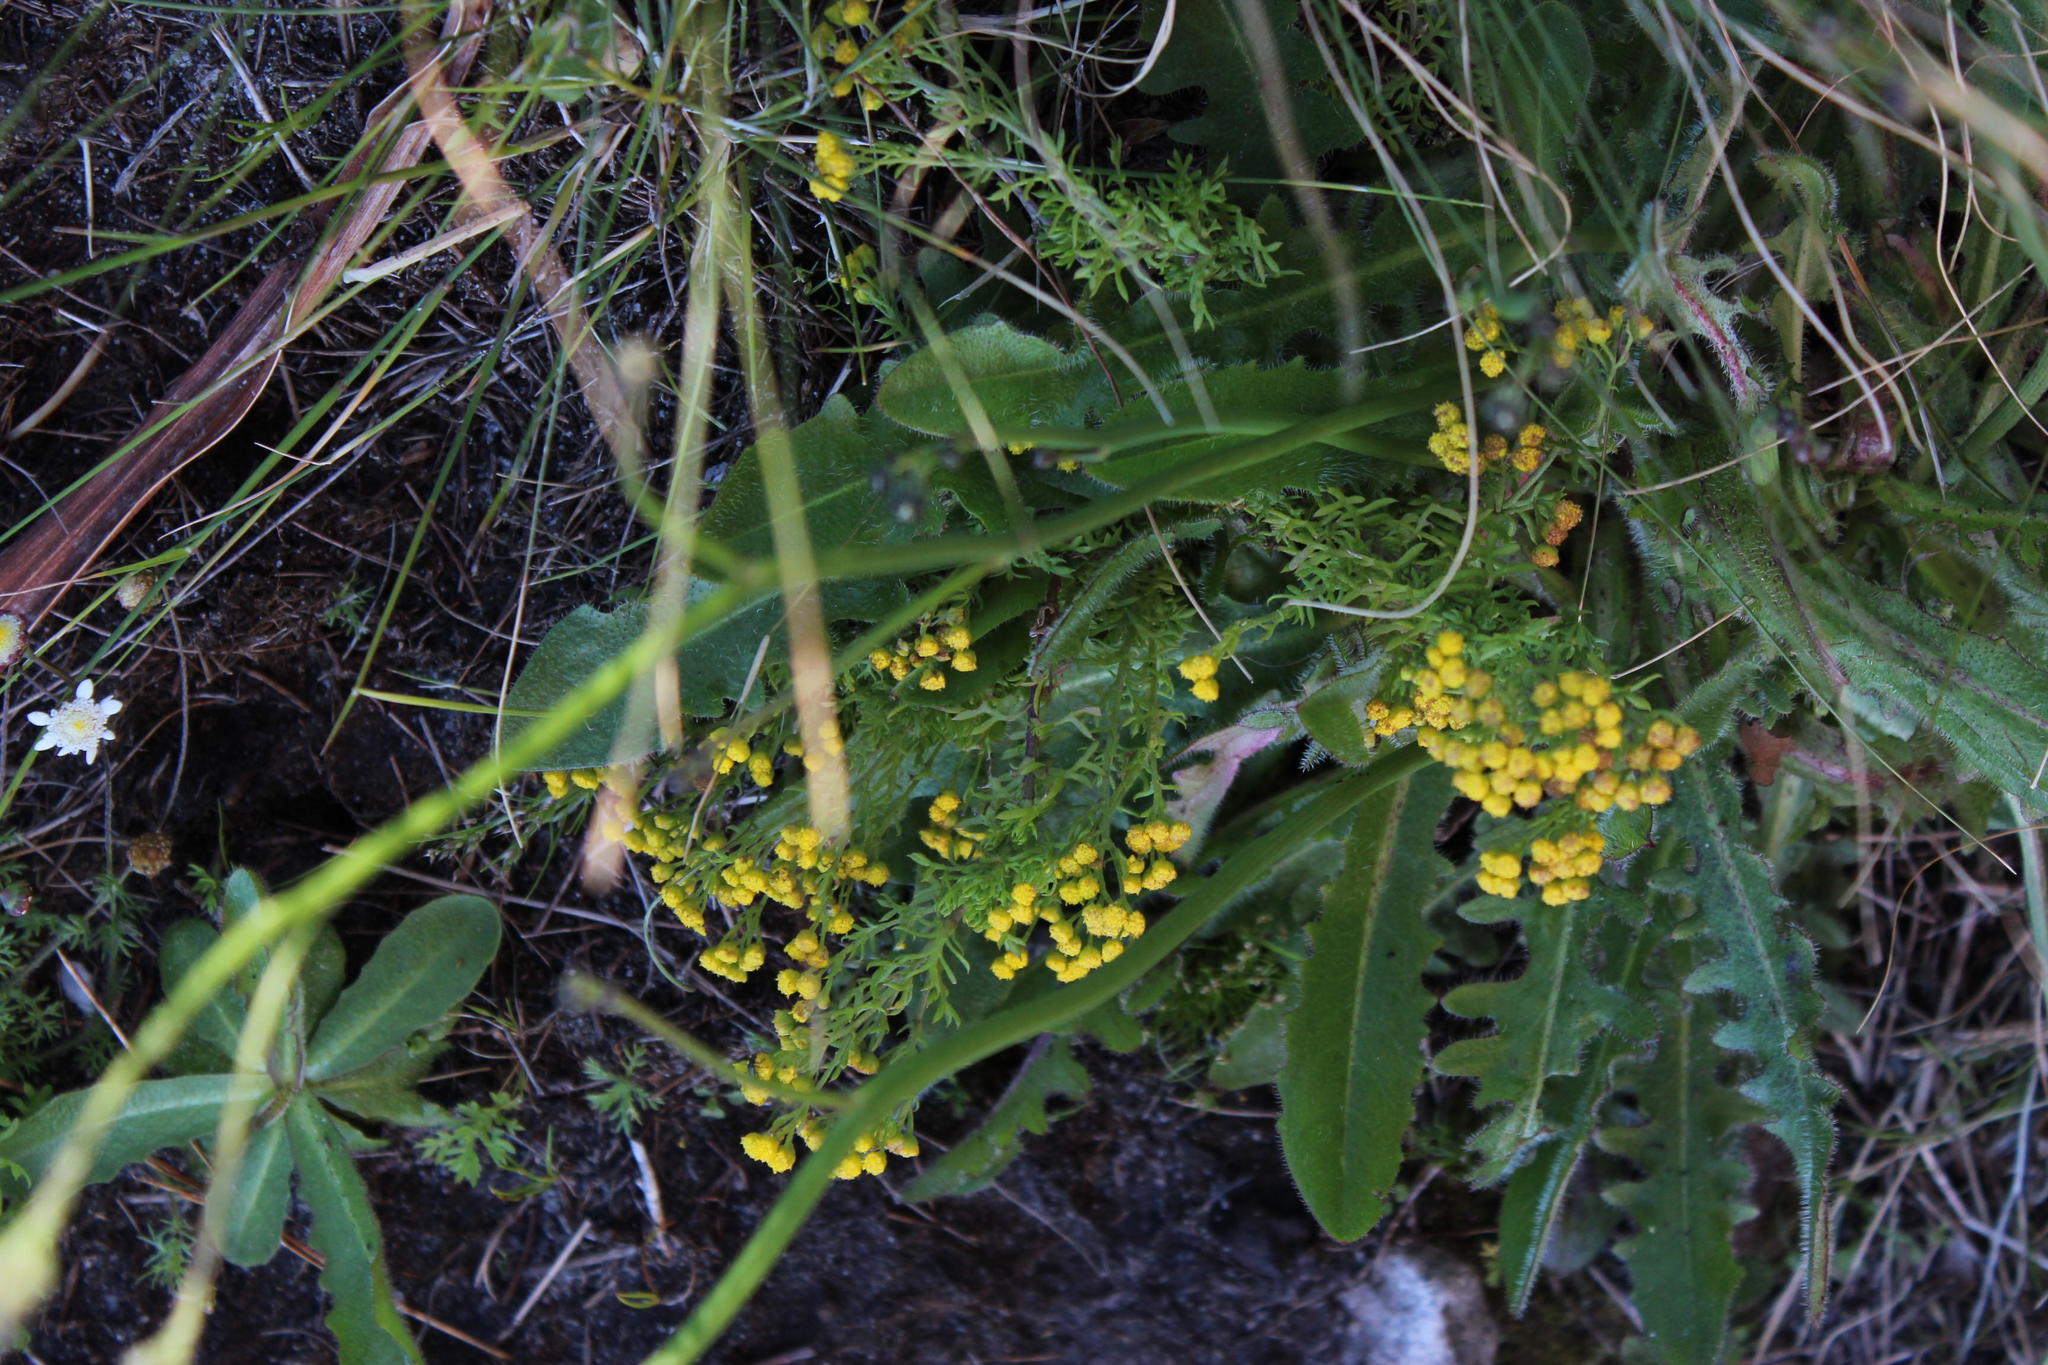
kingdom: Plantae
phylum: Tracheophyta
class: Magnoliopsida
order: Asterales
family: Asteraceae
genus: Hippia
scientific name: Hippia pilosa
